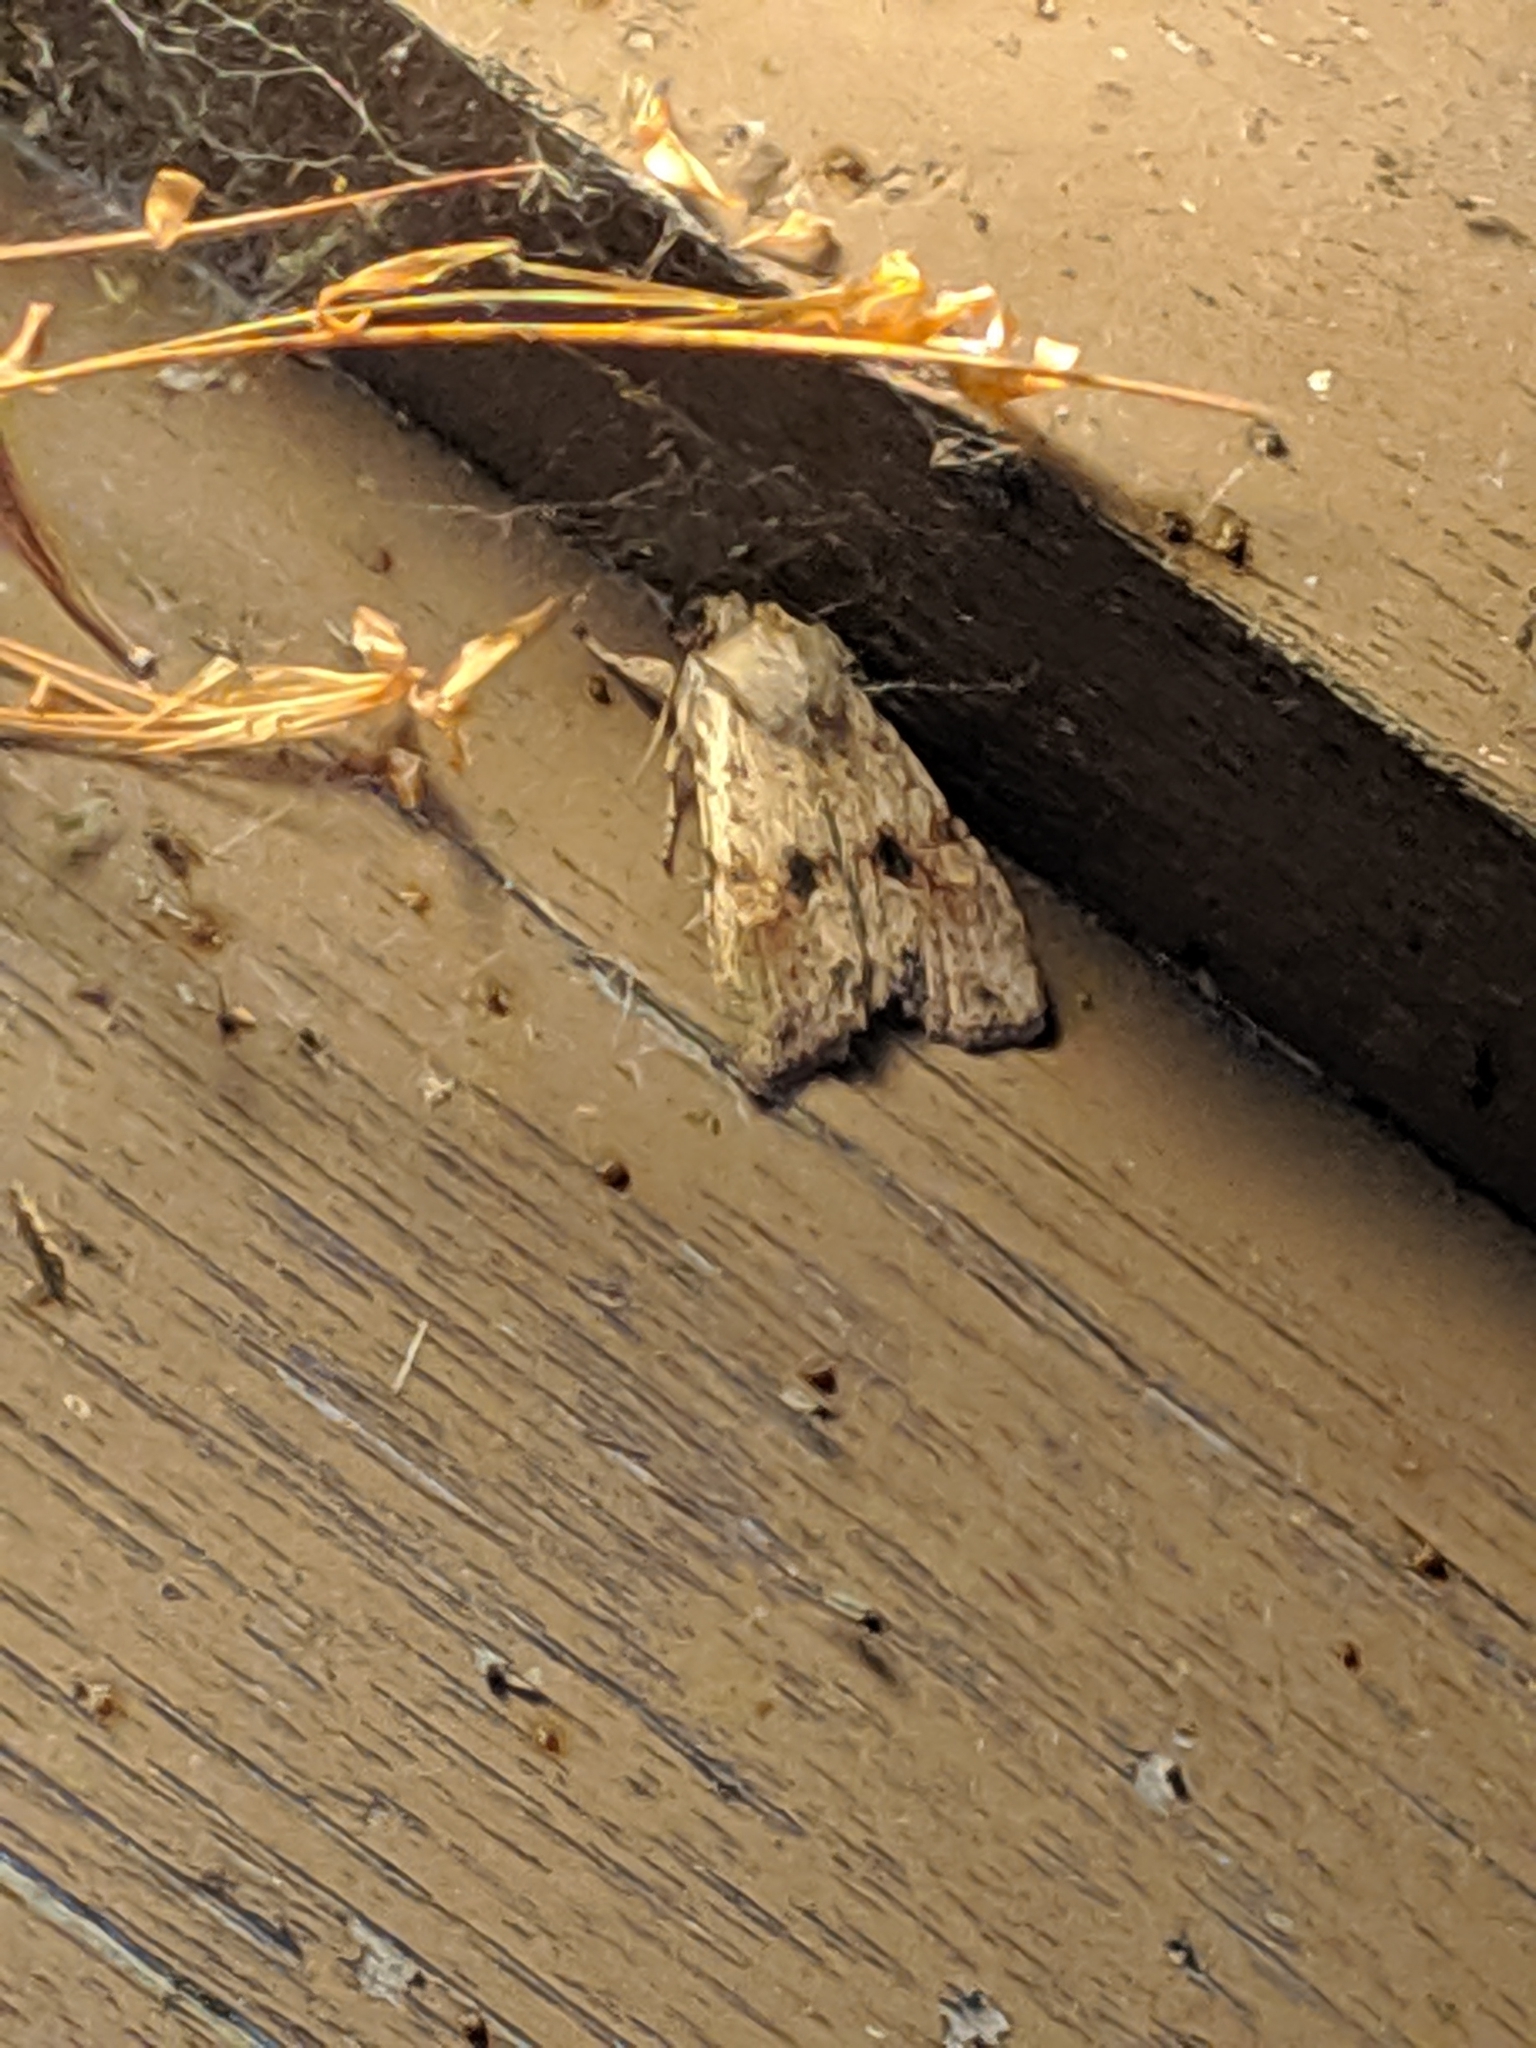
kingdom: Animalia
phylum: Arthropoda
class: Insecta
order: Lepidoptera
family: Noctuidae
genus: Lithophane
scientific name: Lithophane innominata
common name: Nameless pinion moth
